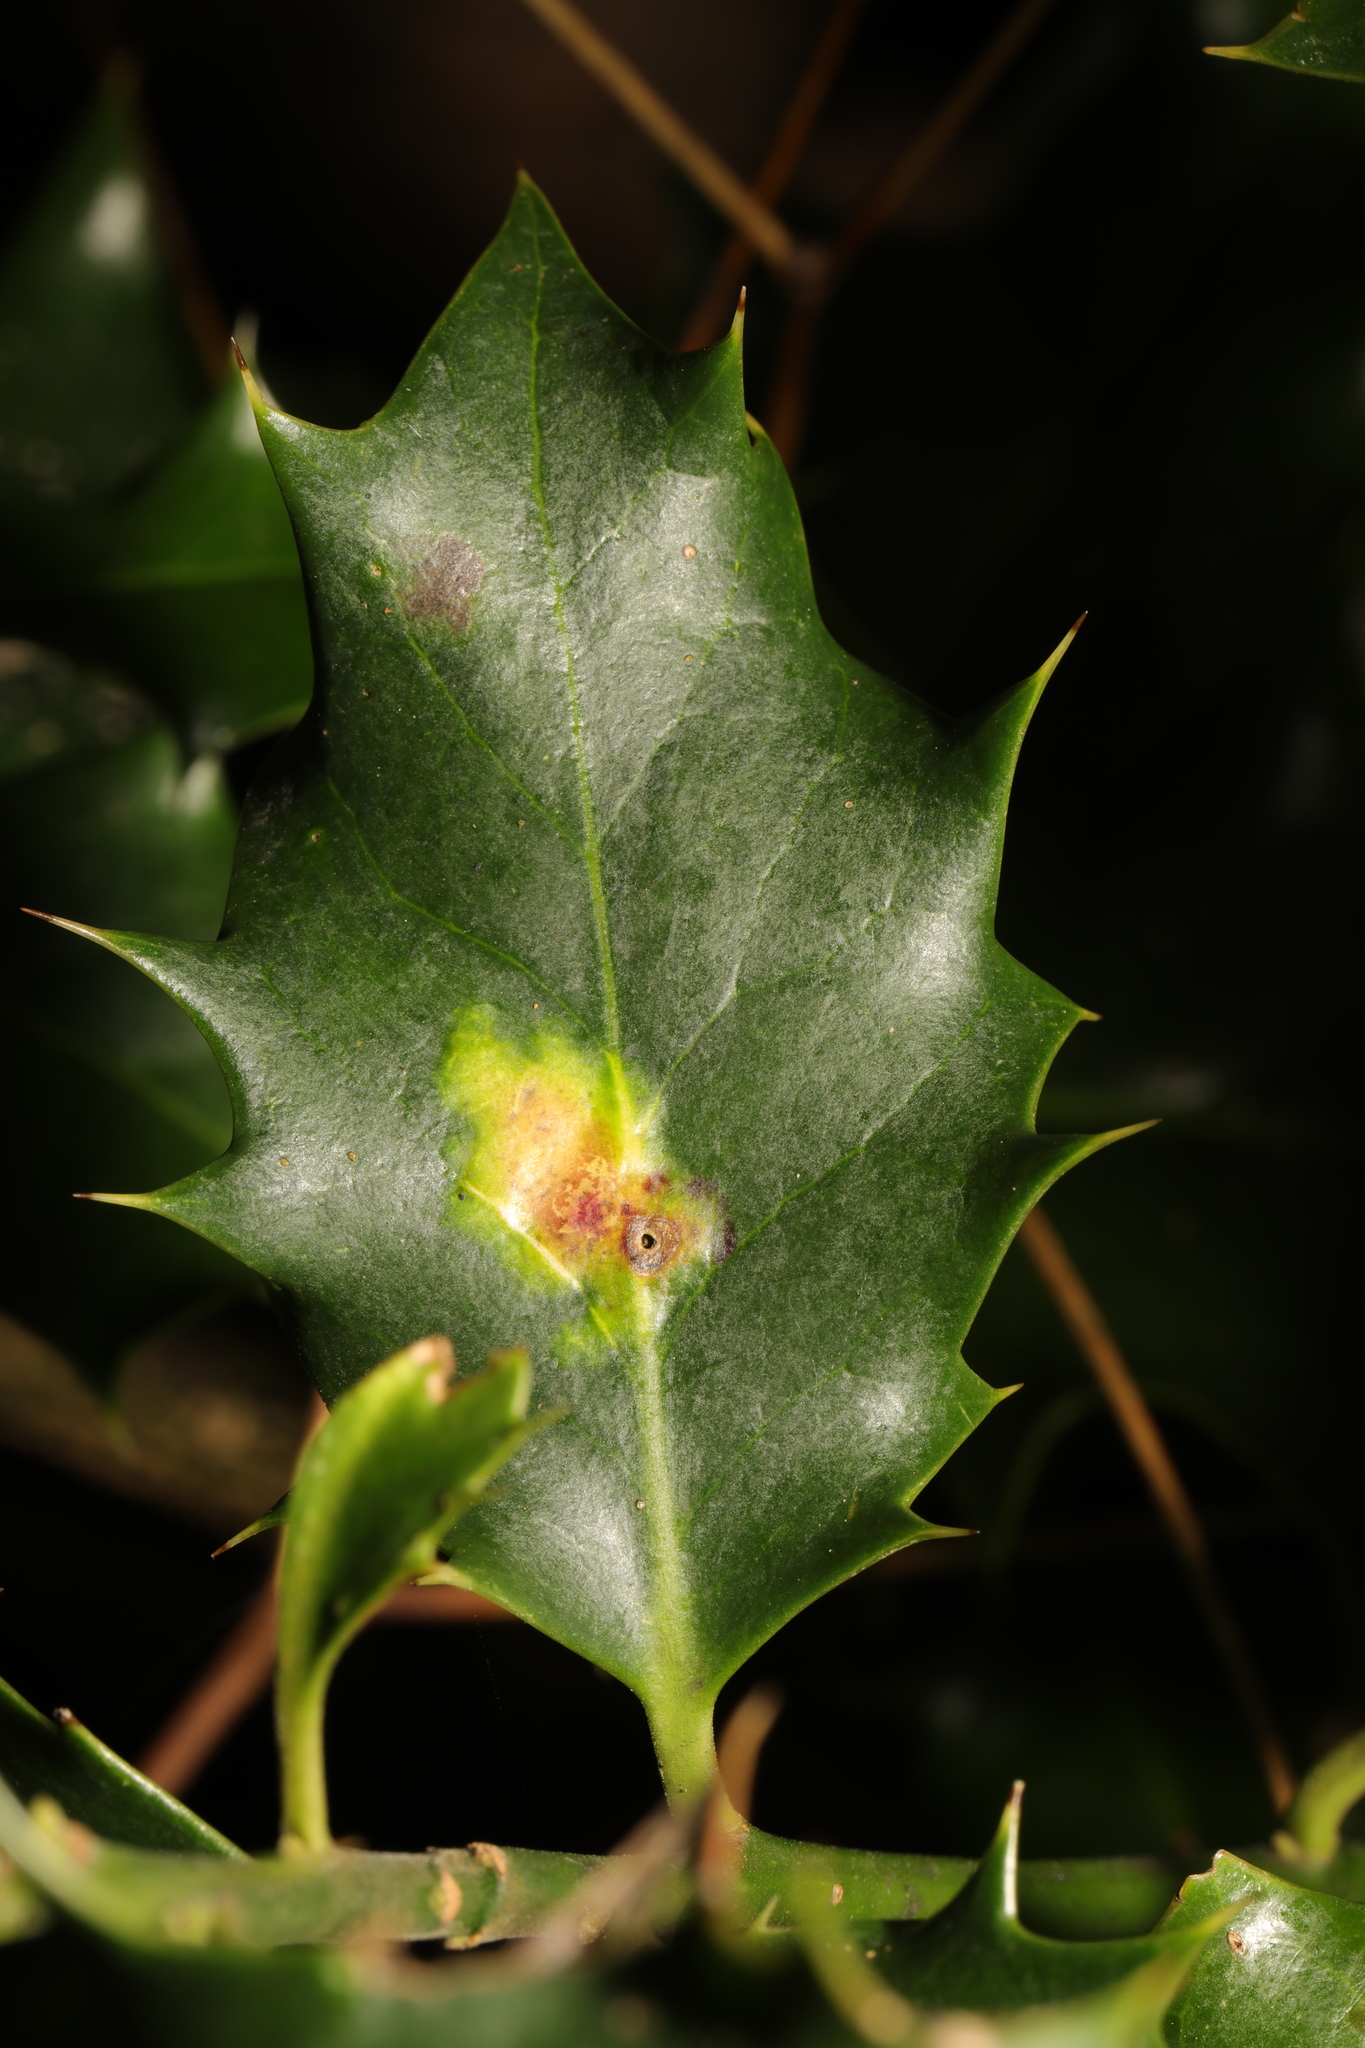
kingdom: Animalia
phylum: Arthropoda
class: Insecta
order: Diptera
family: Agromyzidae
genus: Phytomyza
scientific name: Phytomyza ilicis
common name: Holly leafminer
